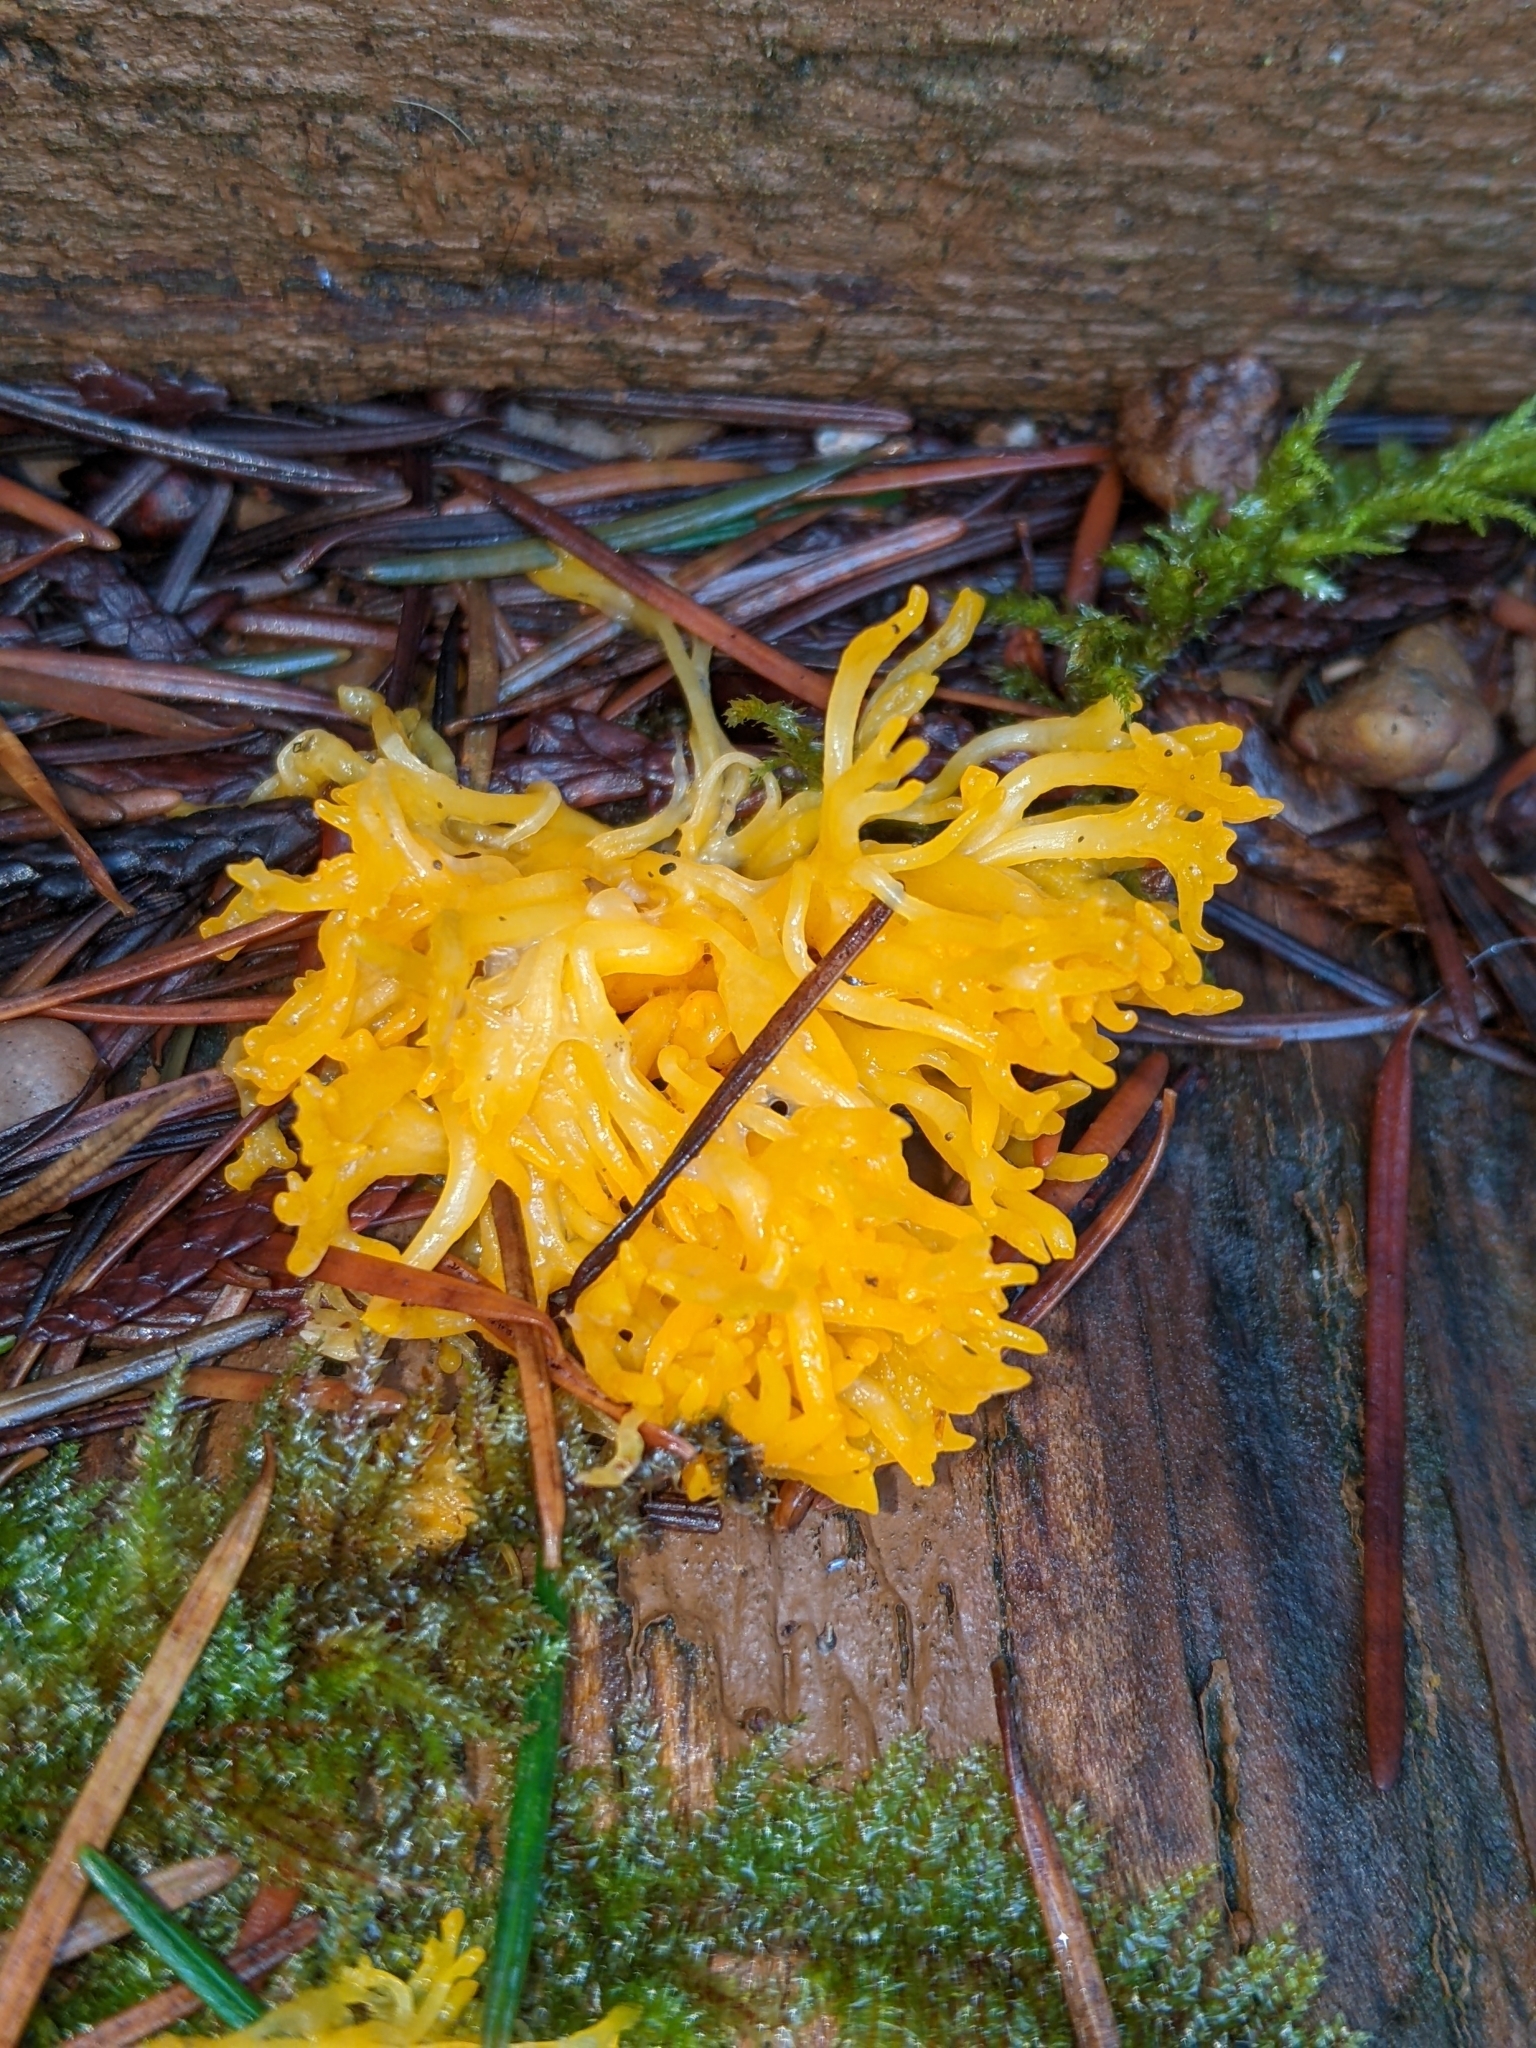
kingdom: Fungi
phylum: Basidiomycota
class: Dacrymycetes
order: Dacrymycetales
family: Dacrymycetaceae
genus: Calocera
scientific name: Calocera viscosa
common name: Yellow stagshorn
